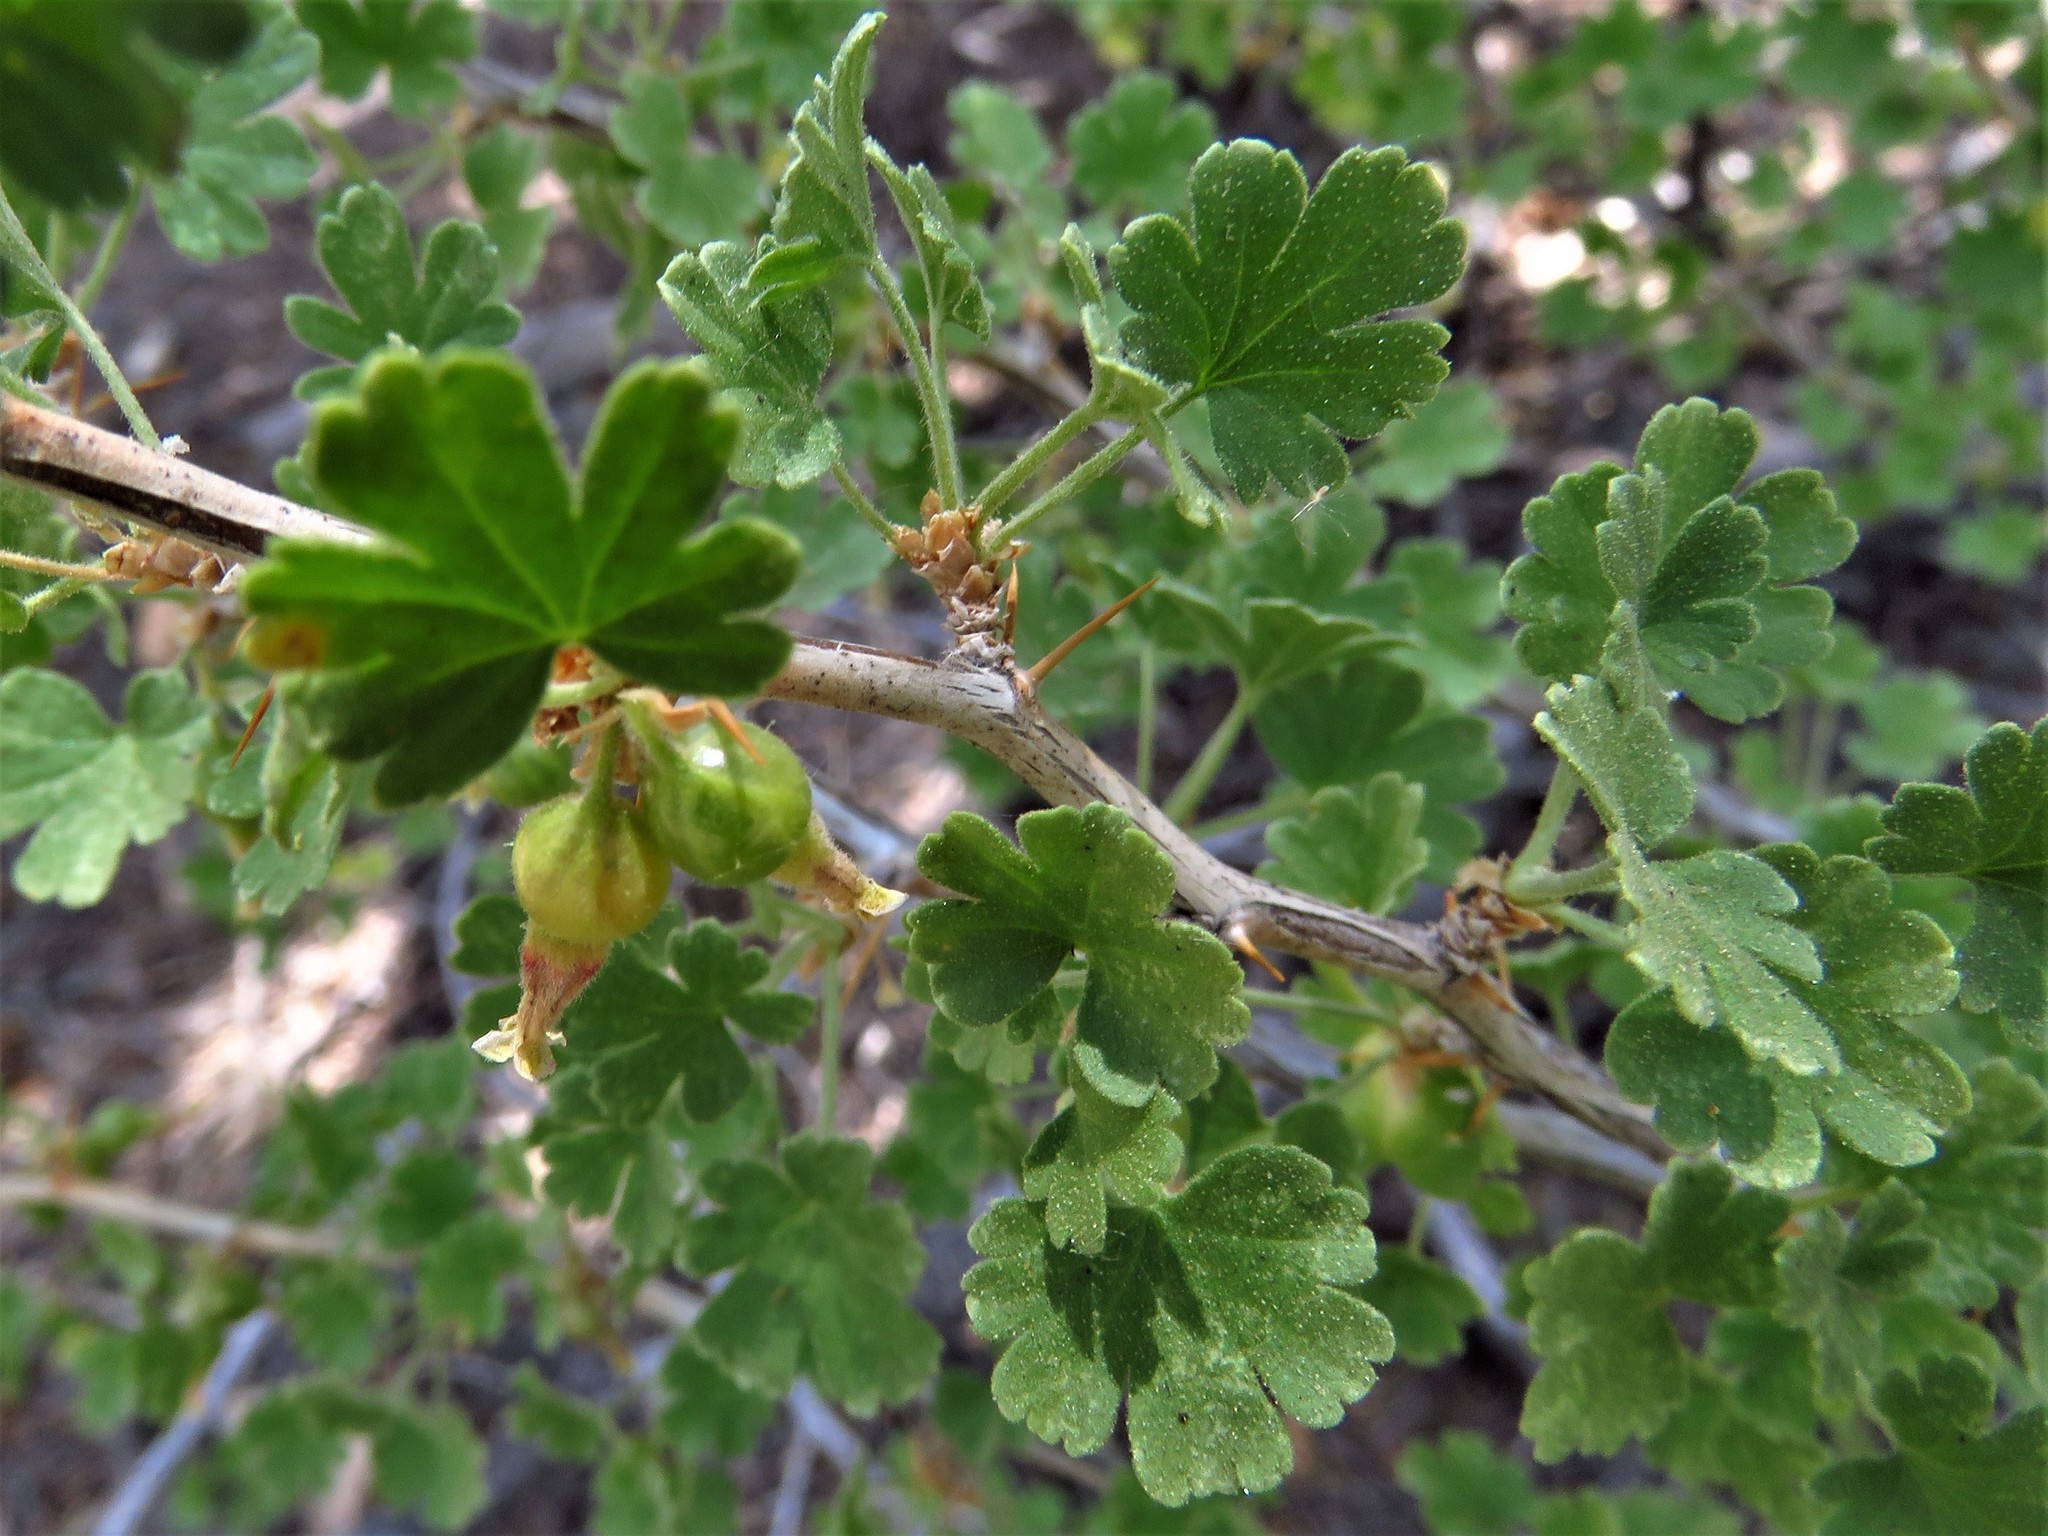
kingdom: Plantae
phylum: Tracheophyta
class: Magnoliopsida
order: Saxifragales
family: Grossulariaceae
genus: Ribes
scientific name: Ribes velutinum
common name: Desert gooseberry
